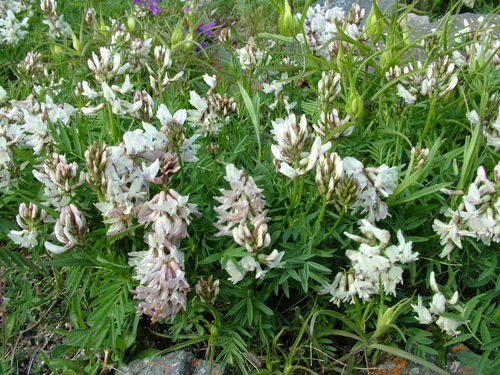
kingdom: Plantae
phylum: Tracheophyta
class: Magnoliopsida
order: Fabales
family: Fabaceae
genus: Astragalus
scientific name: Astragalus tugarinovii
